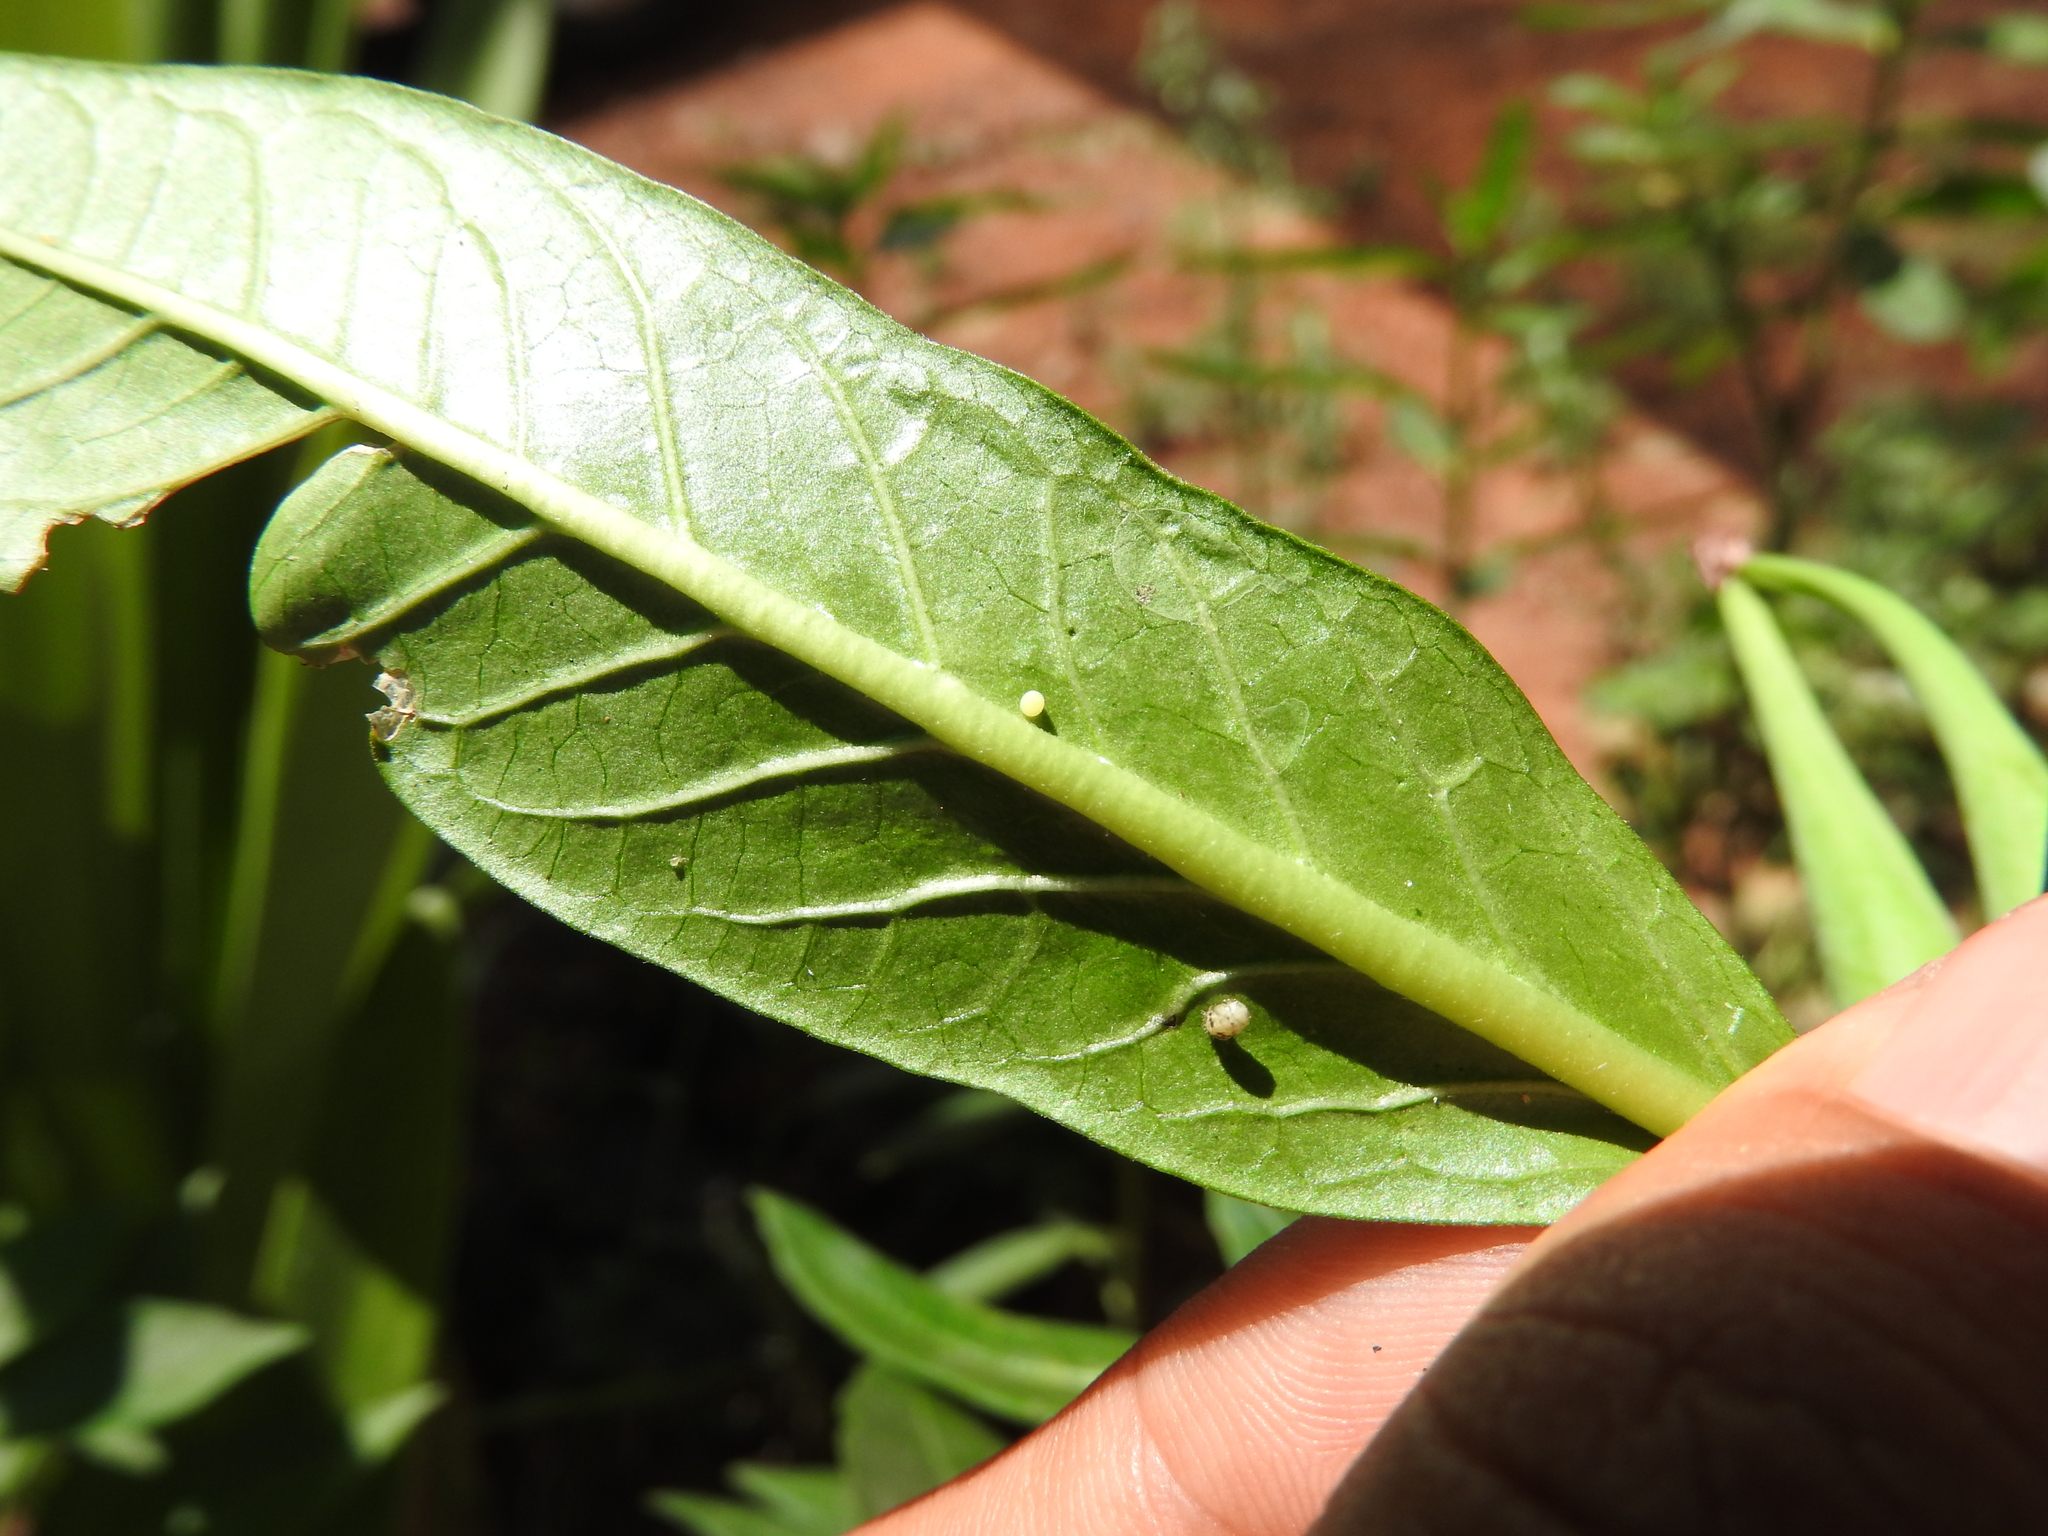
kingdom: Animalia
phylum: Arthropoda
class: Insecta
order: Lepidoptera
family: Nymphalidae
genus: Danaus
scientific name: Danaus plexippus
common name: Monarch
